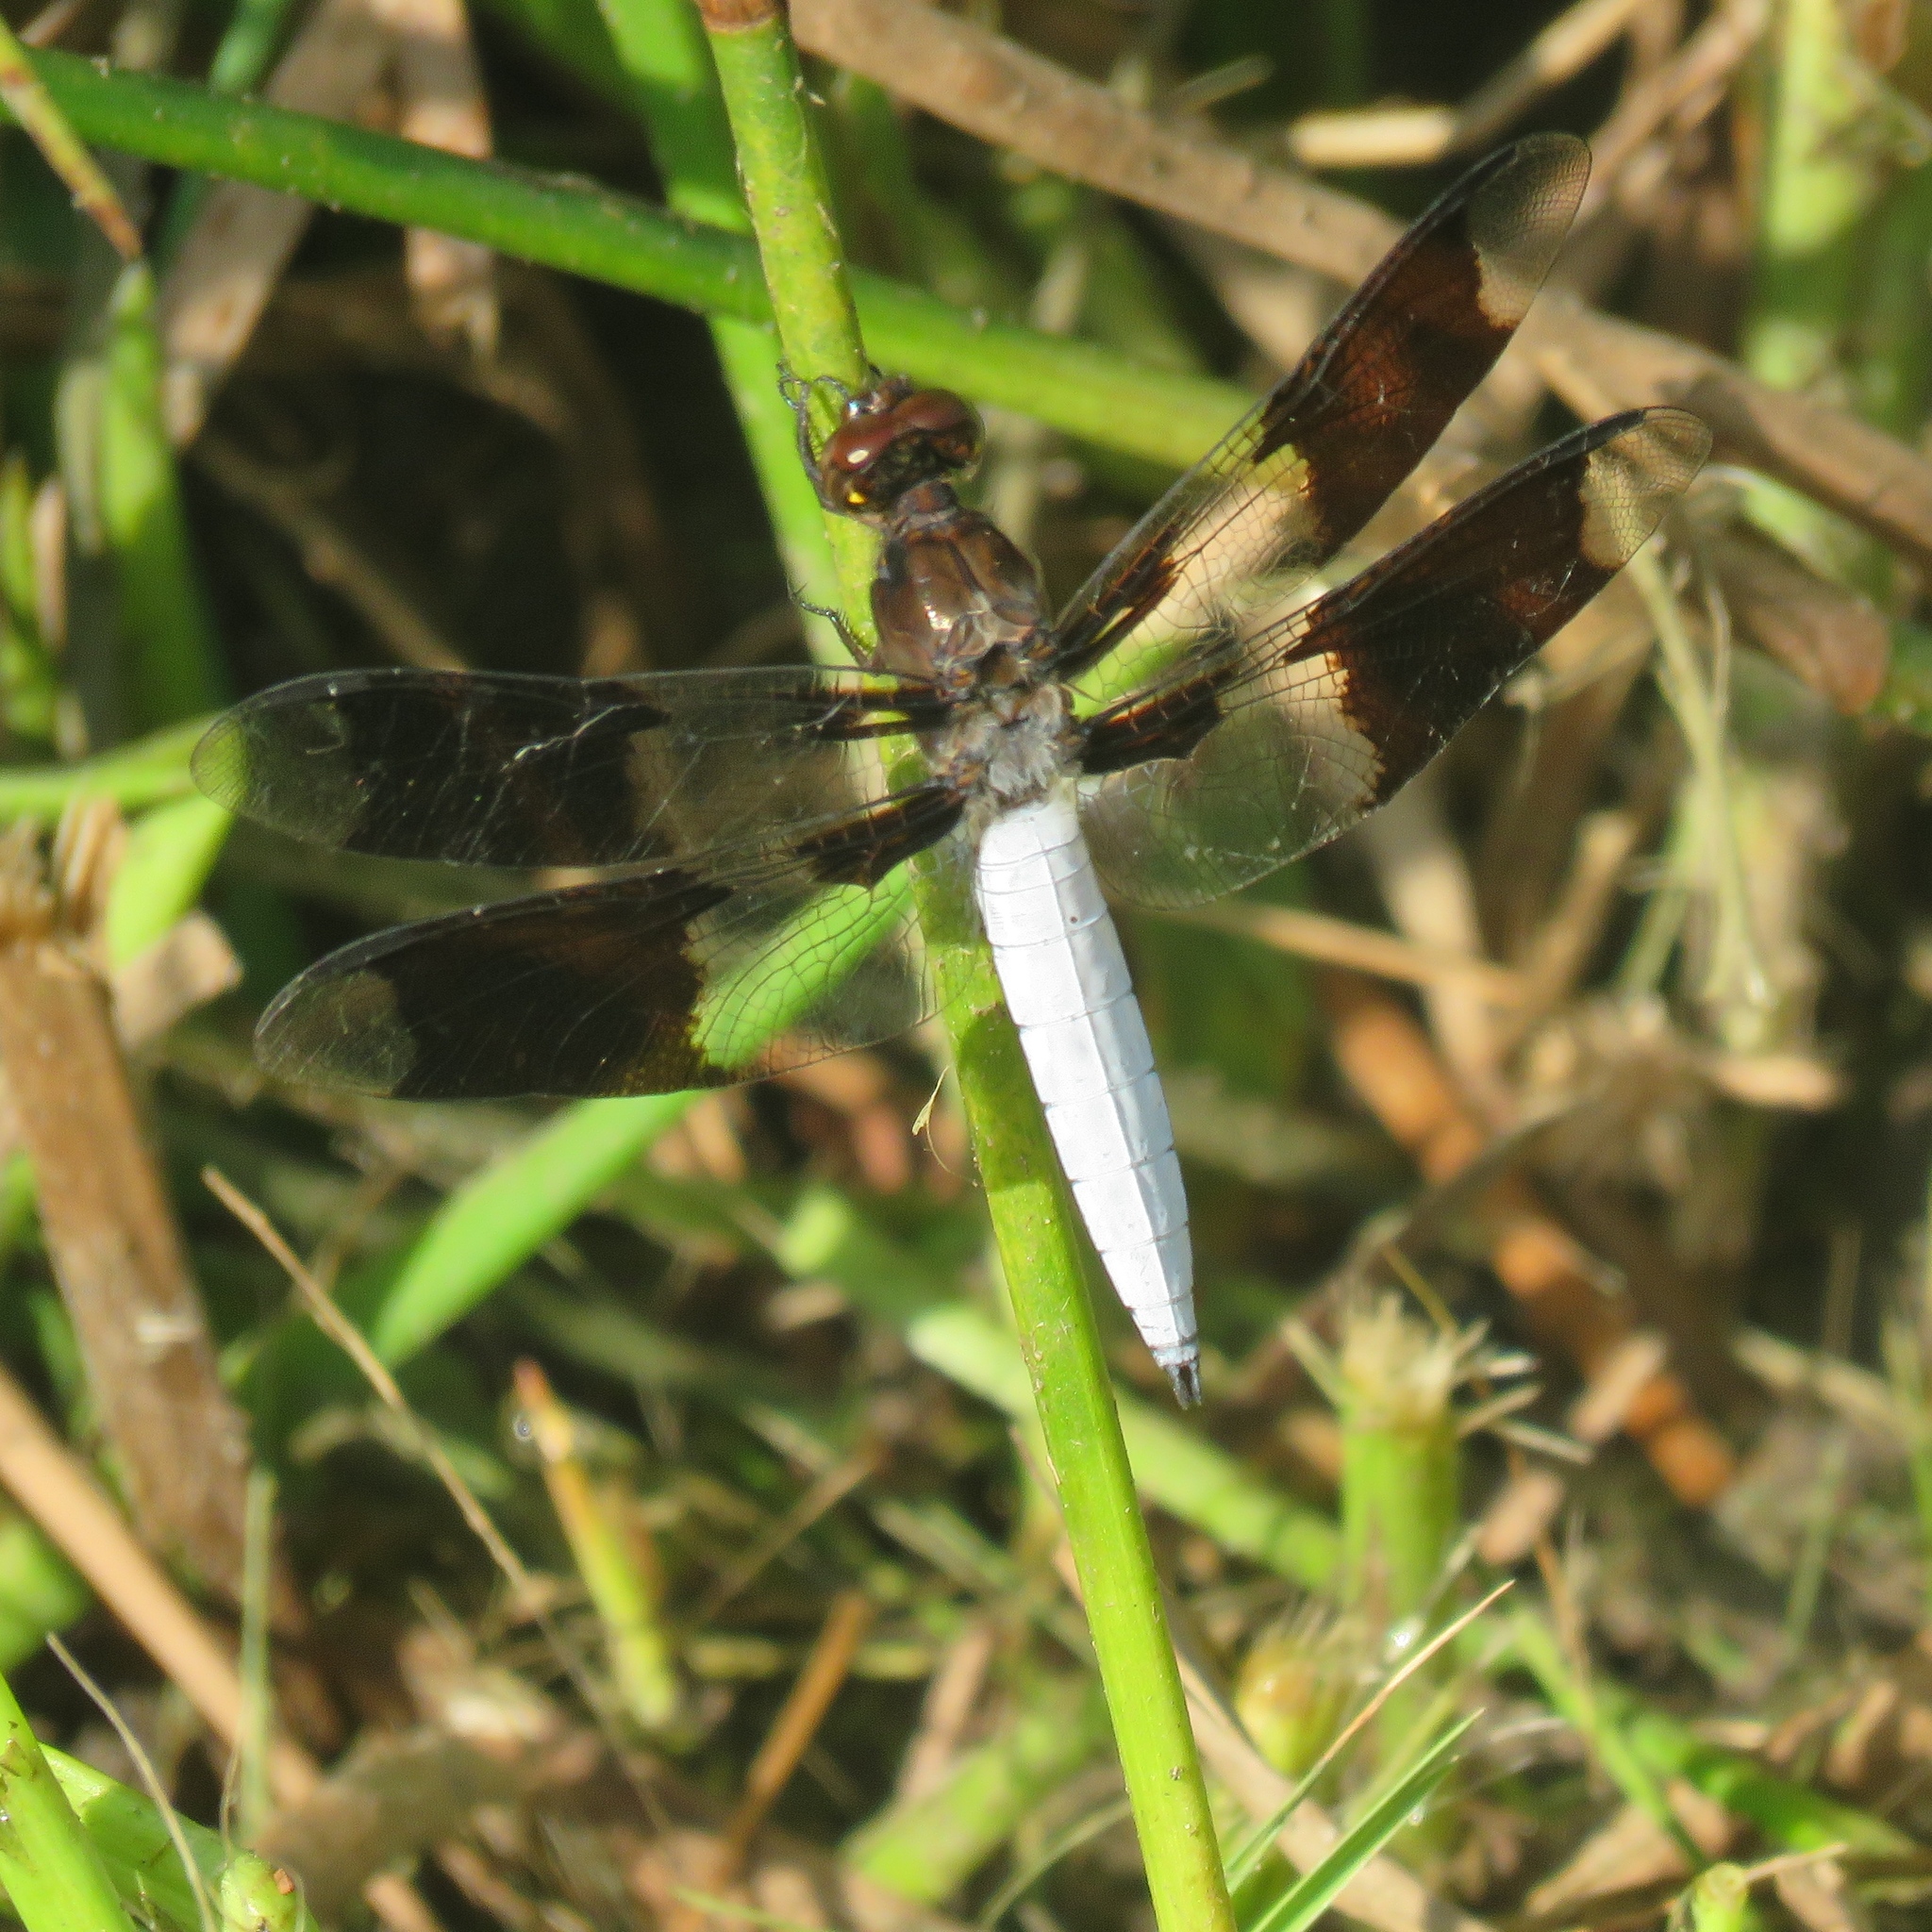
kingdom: Animalia
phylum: Arthropoda
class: Insecta
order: Odonata
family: Libellulidae
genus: Plathemis
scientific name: Plathemis lydia
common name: Common whitetail
